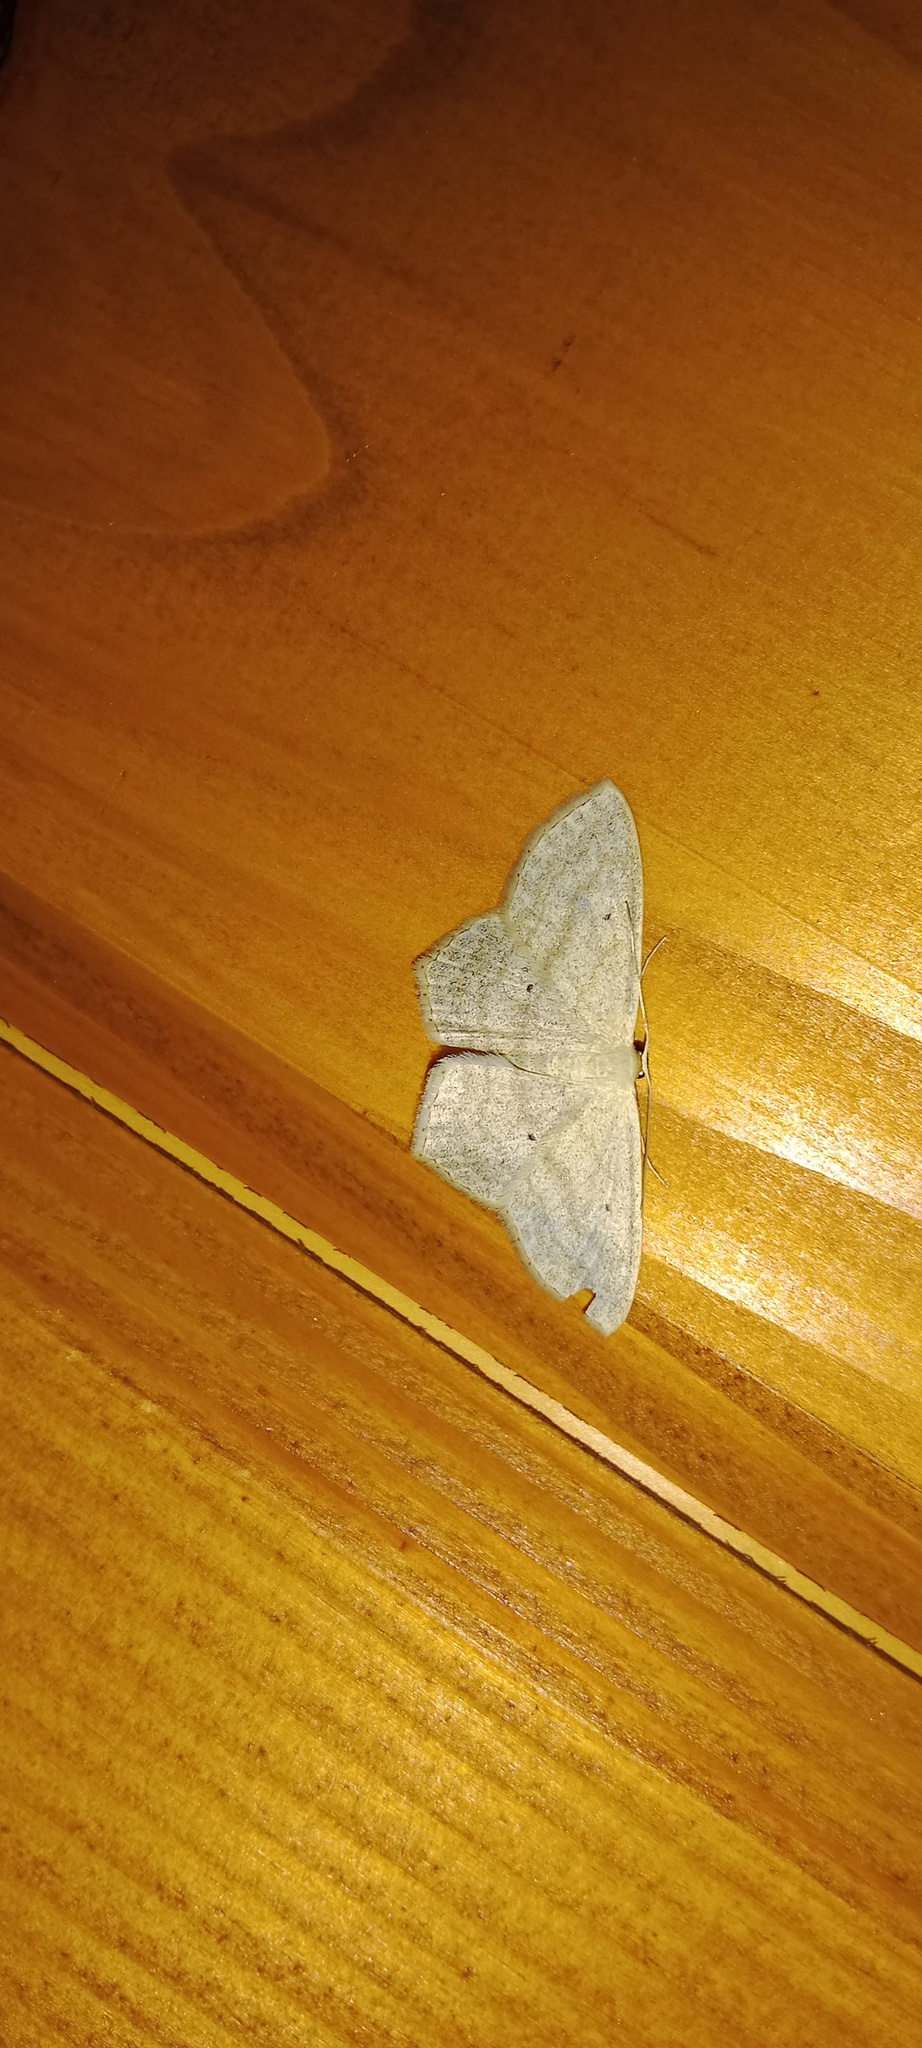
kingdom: Animalia
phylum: Arthropoda
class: Insecta
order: Lepidoptera
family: Geometridae
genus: Scopula
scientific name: Scopula nigropunctata
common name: Sub-angled wave
